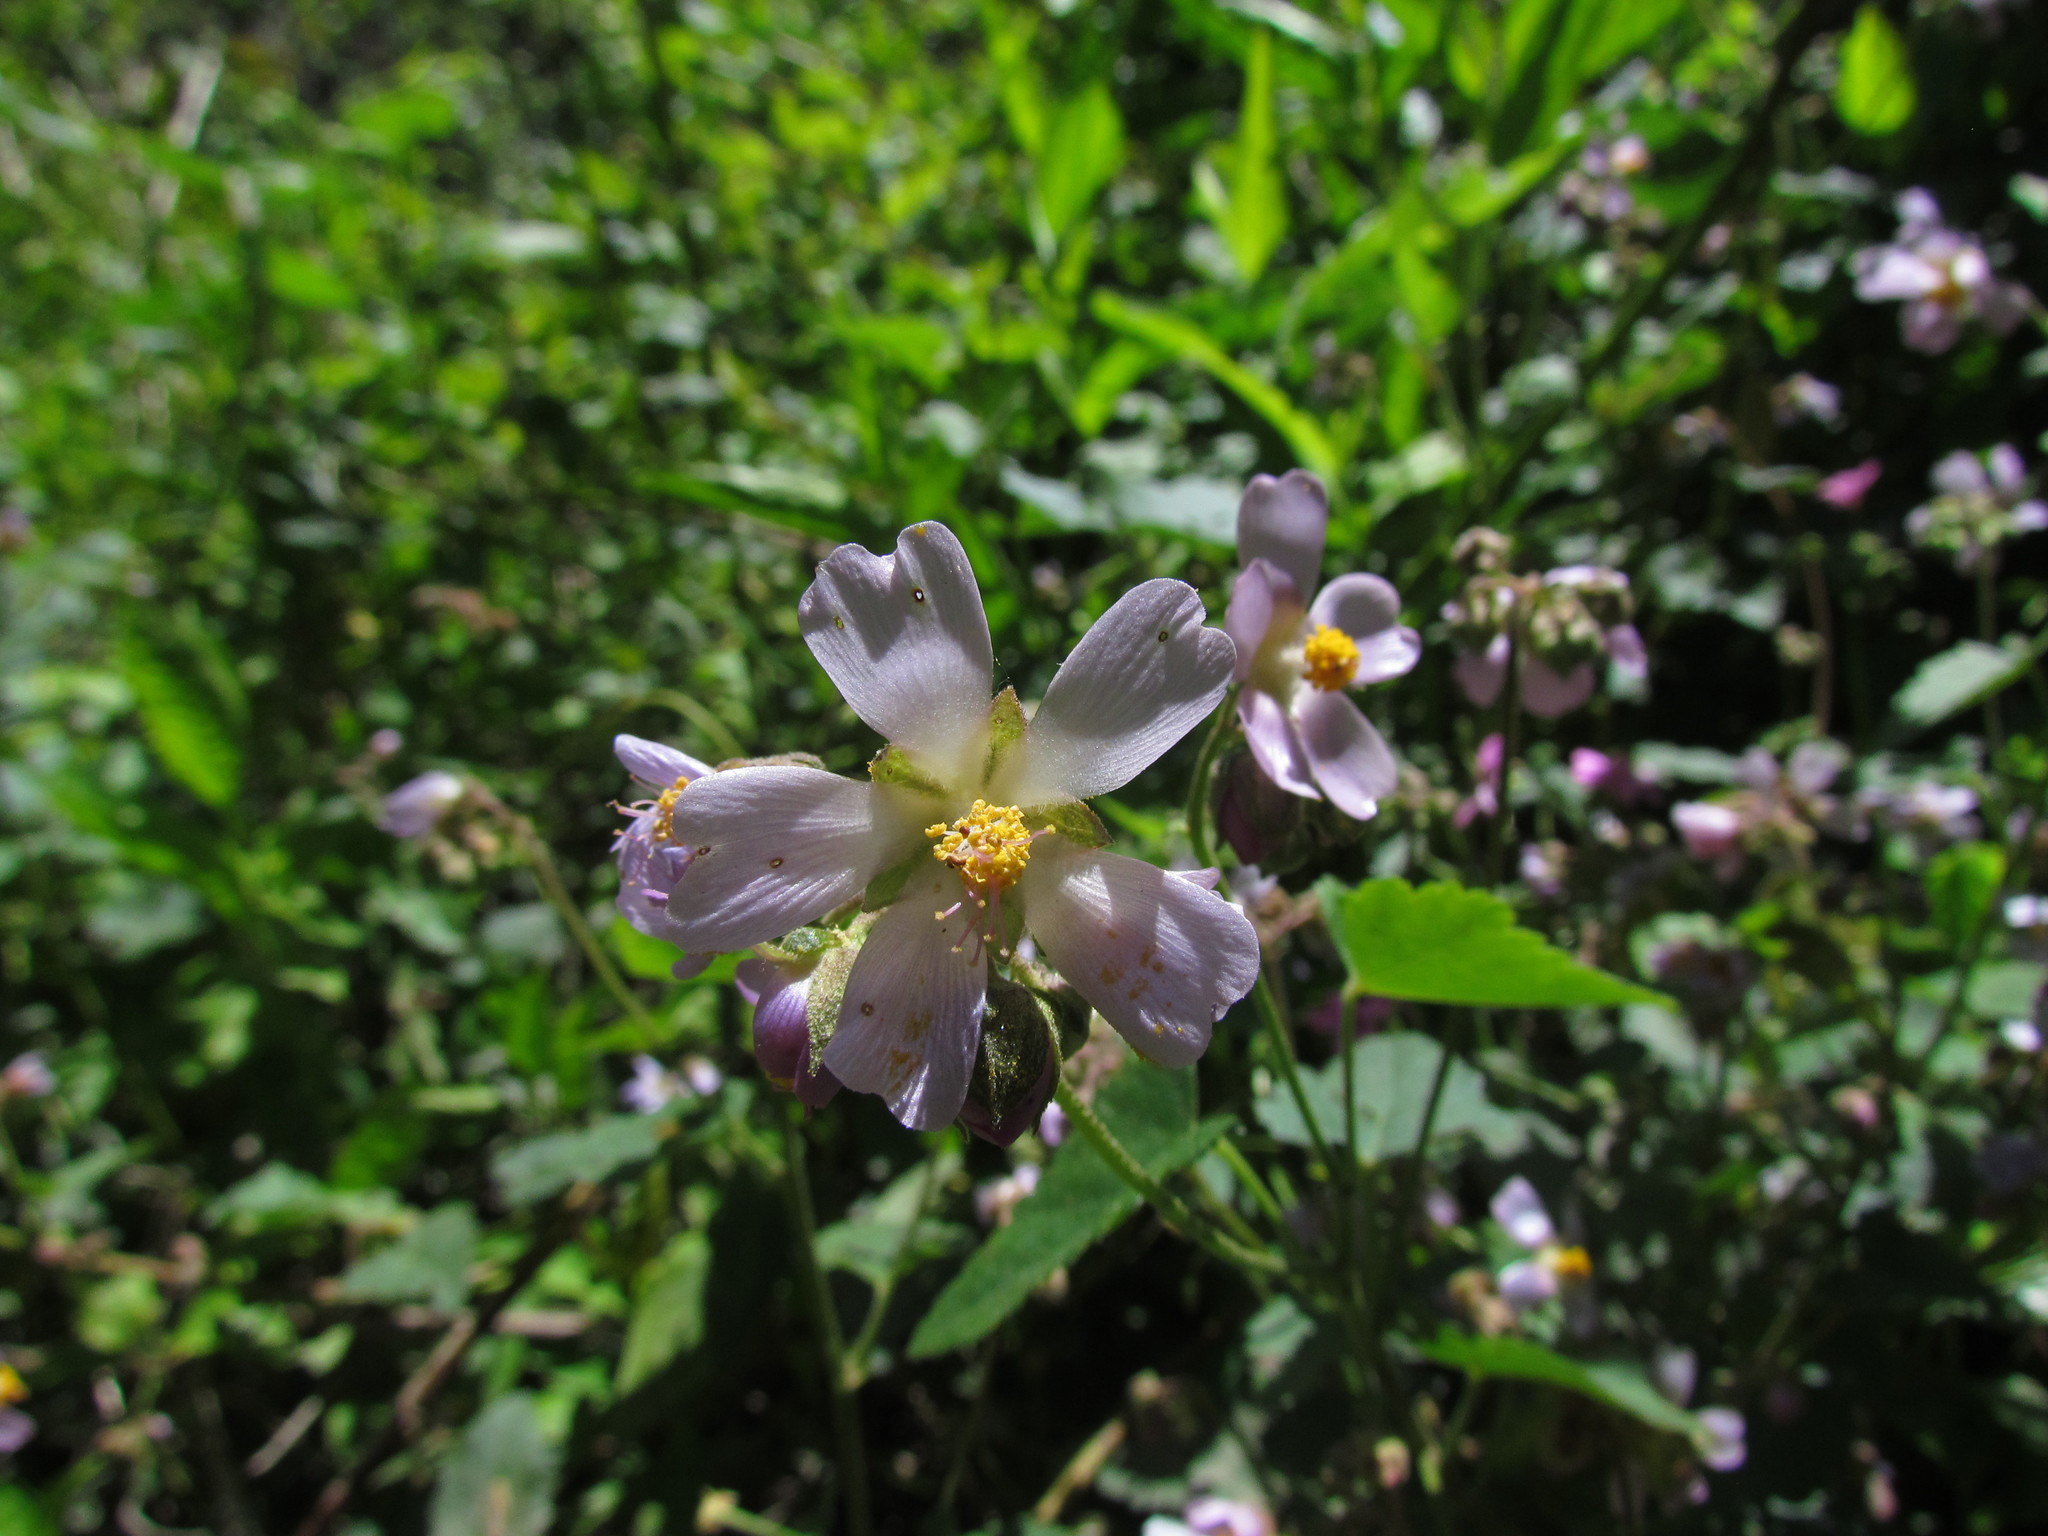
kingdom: Plantae
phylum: Tracheophyta
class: Magnoliopsida
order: Malvales
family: Malvaceae
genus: Monteiroa
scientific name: Monteiroa glomerata
